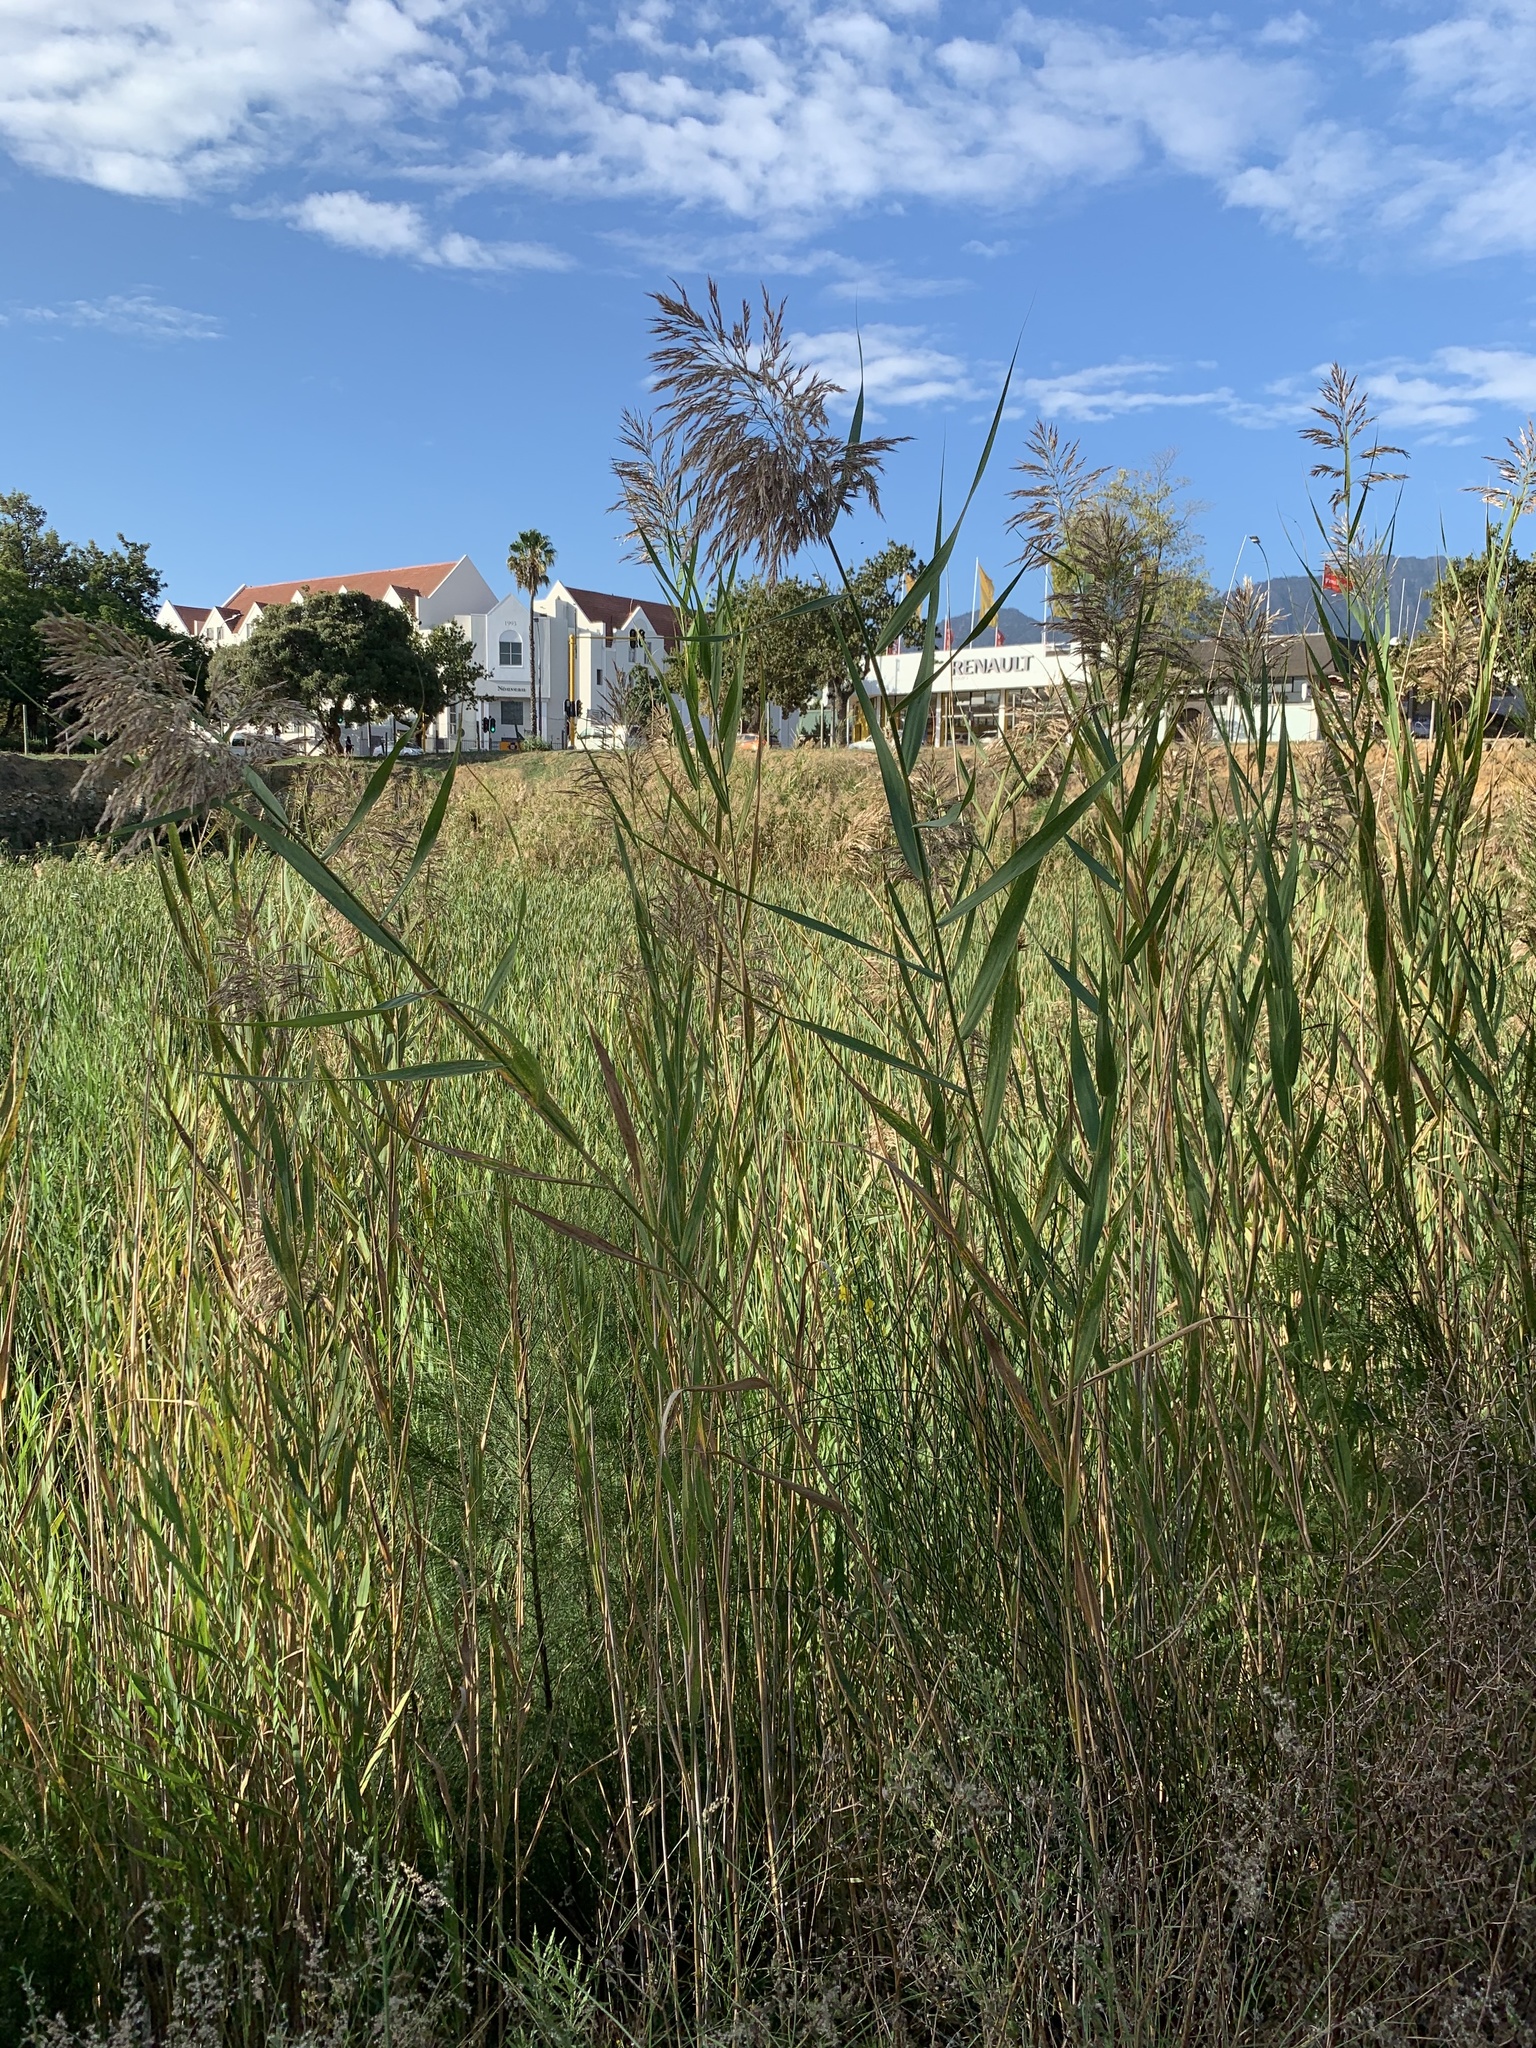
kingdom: Plantae
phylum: Tracheophyta
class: Liliopsida
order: Poales
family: Poaceae
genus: Phragmites
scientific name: Phragmites australis
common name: Common reed
